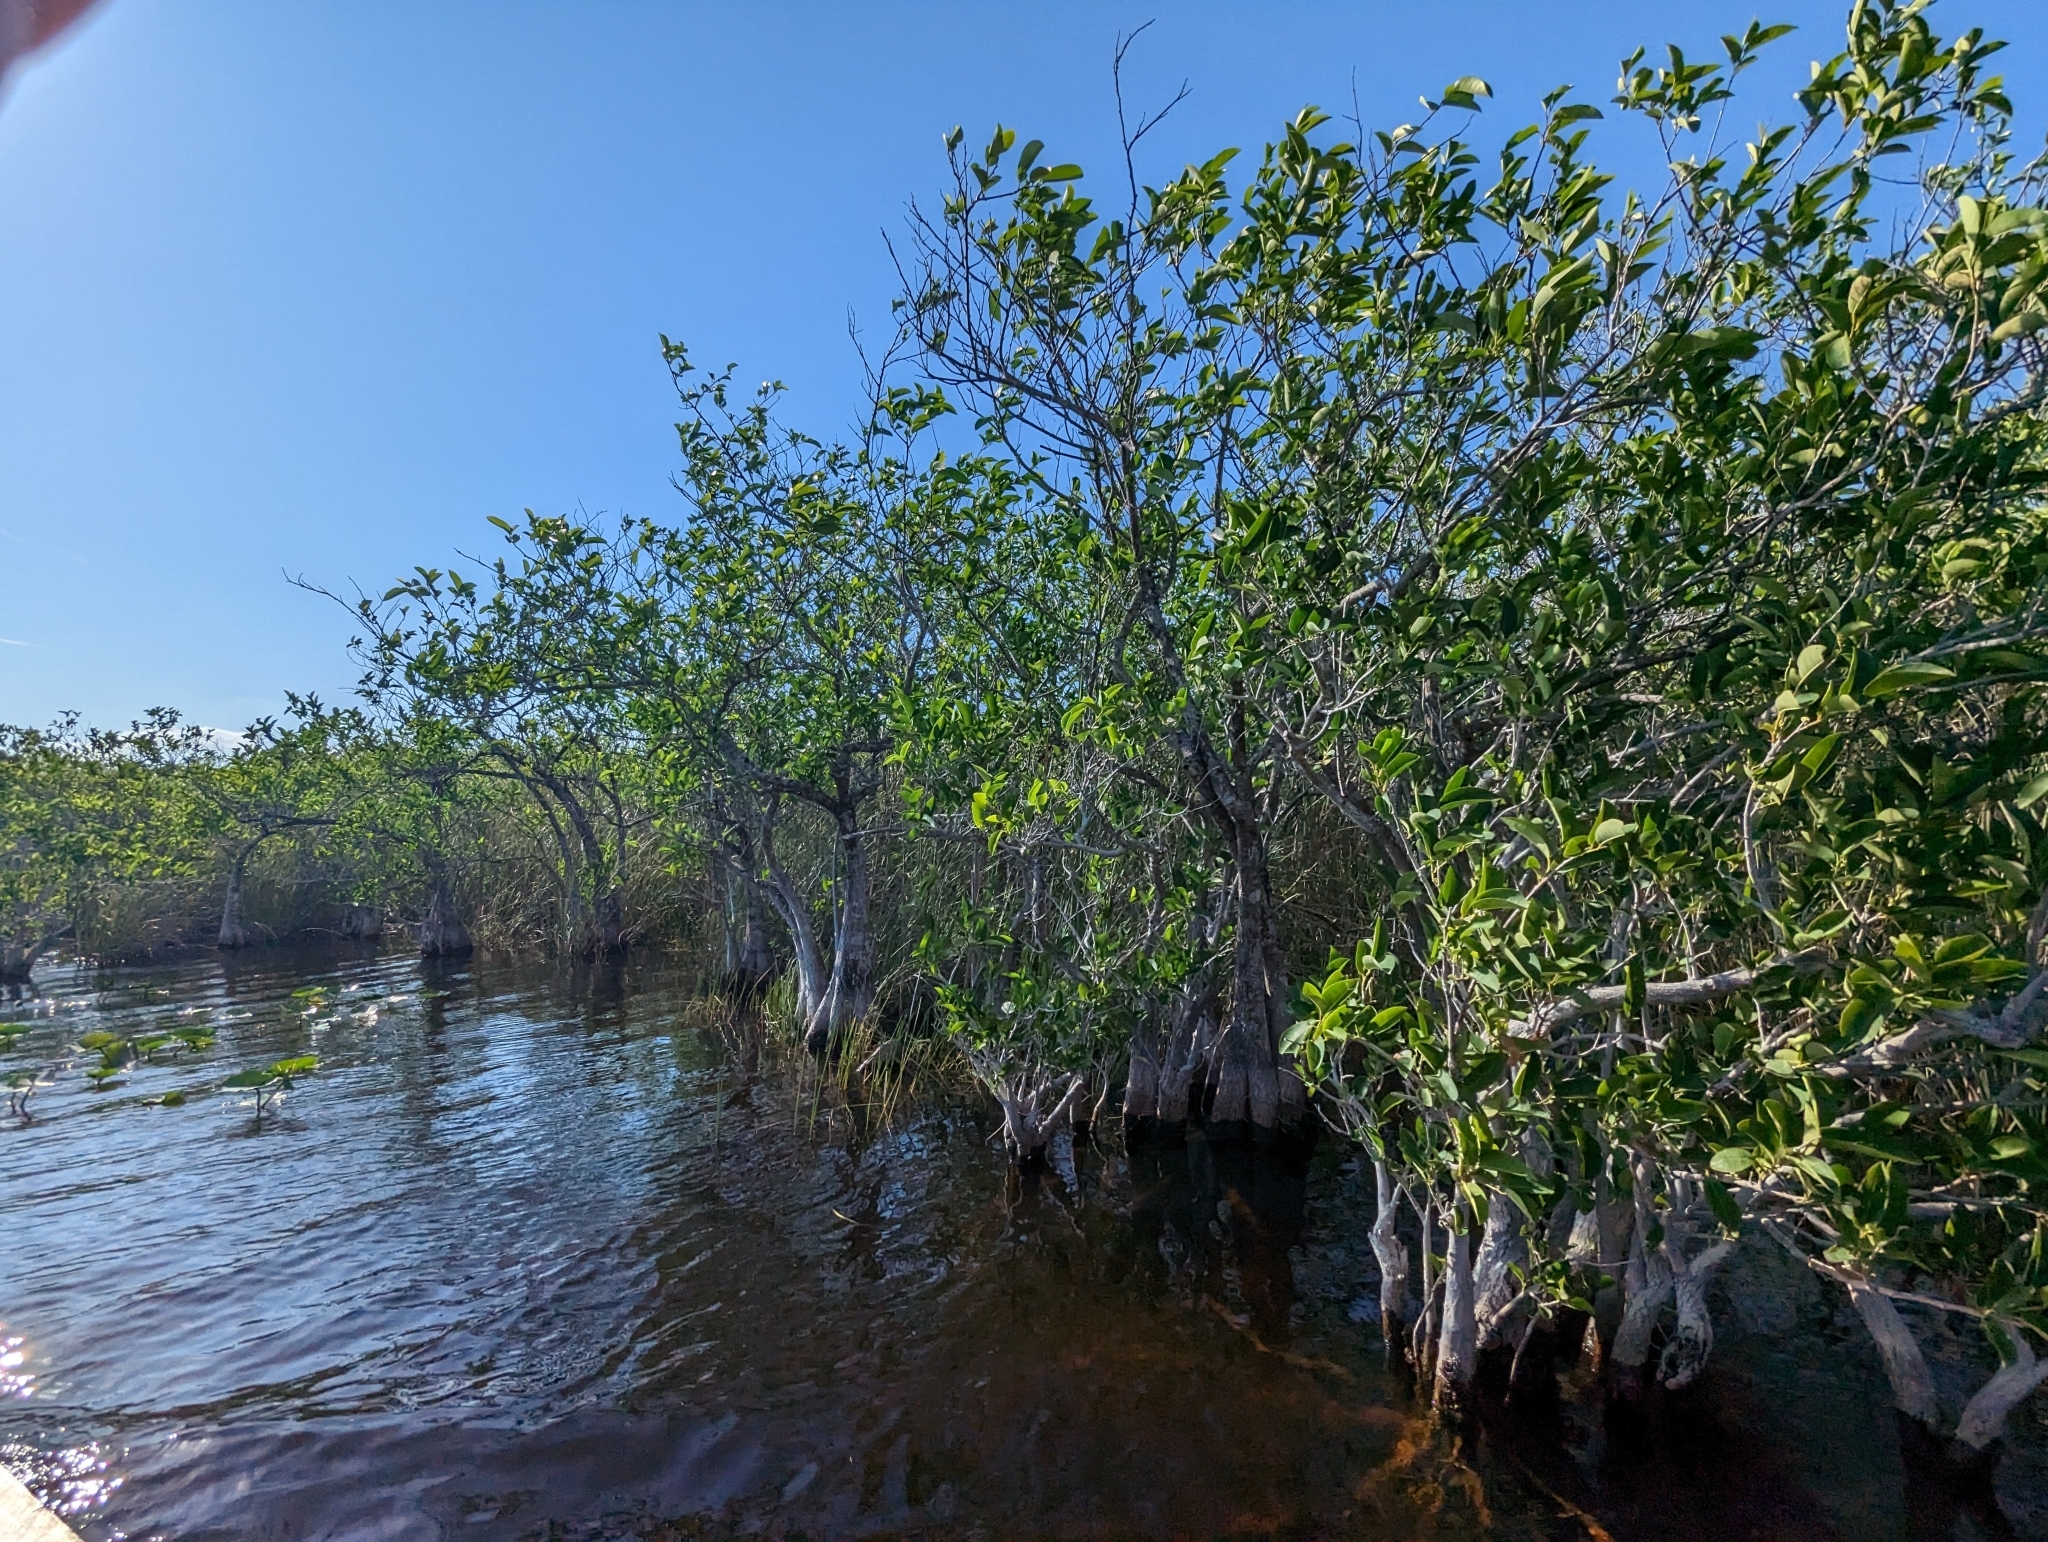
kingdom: Plantae
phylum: Tracheophyta
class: Magnoliopsida
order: Magnoliales
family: Annonaceae
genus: Annona
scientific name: Annona glabra
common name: Monkey apple
